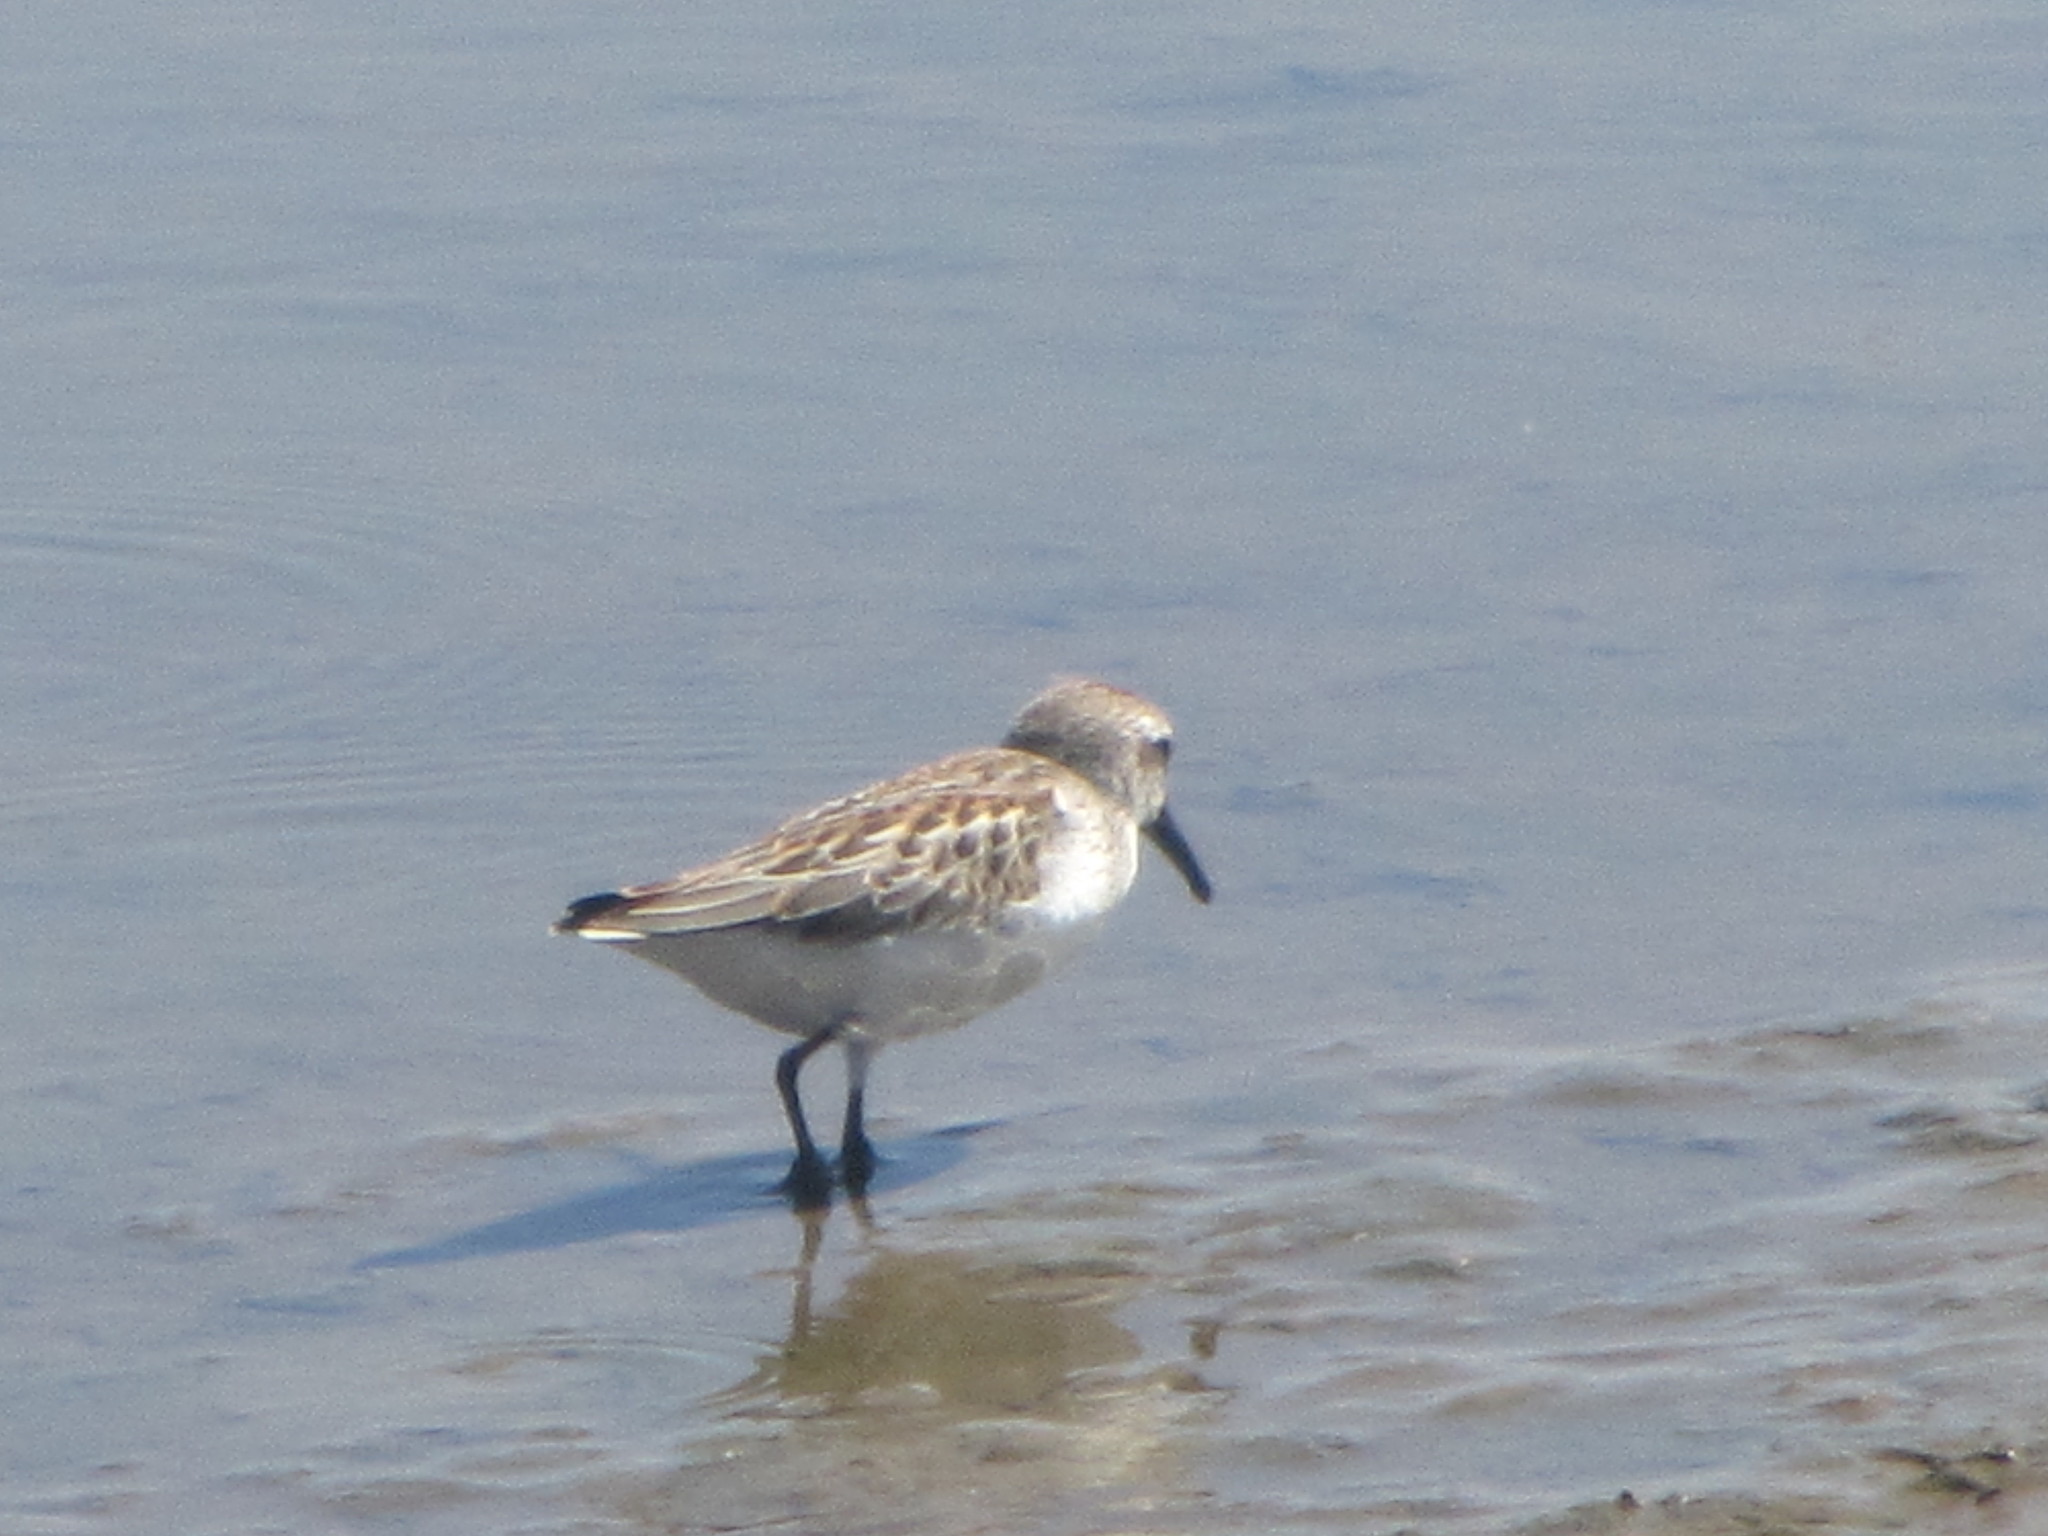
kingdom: Animalia
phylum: Chordata
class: Aves
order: Charadriiformes
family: Scolopacidae
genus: Calidris
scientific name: Calidris mauri
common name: Western sandpiper
